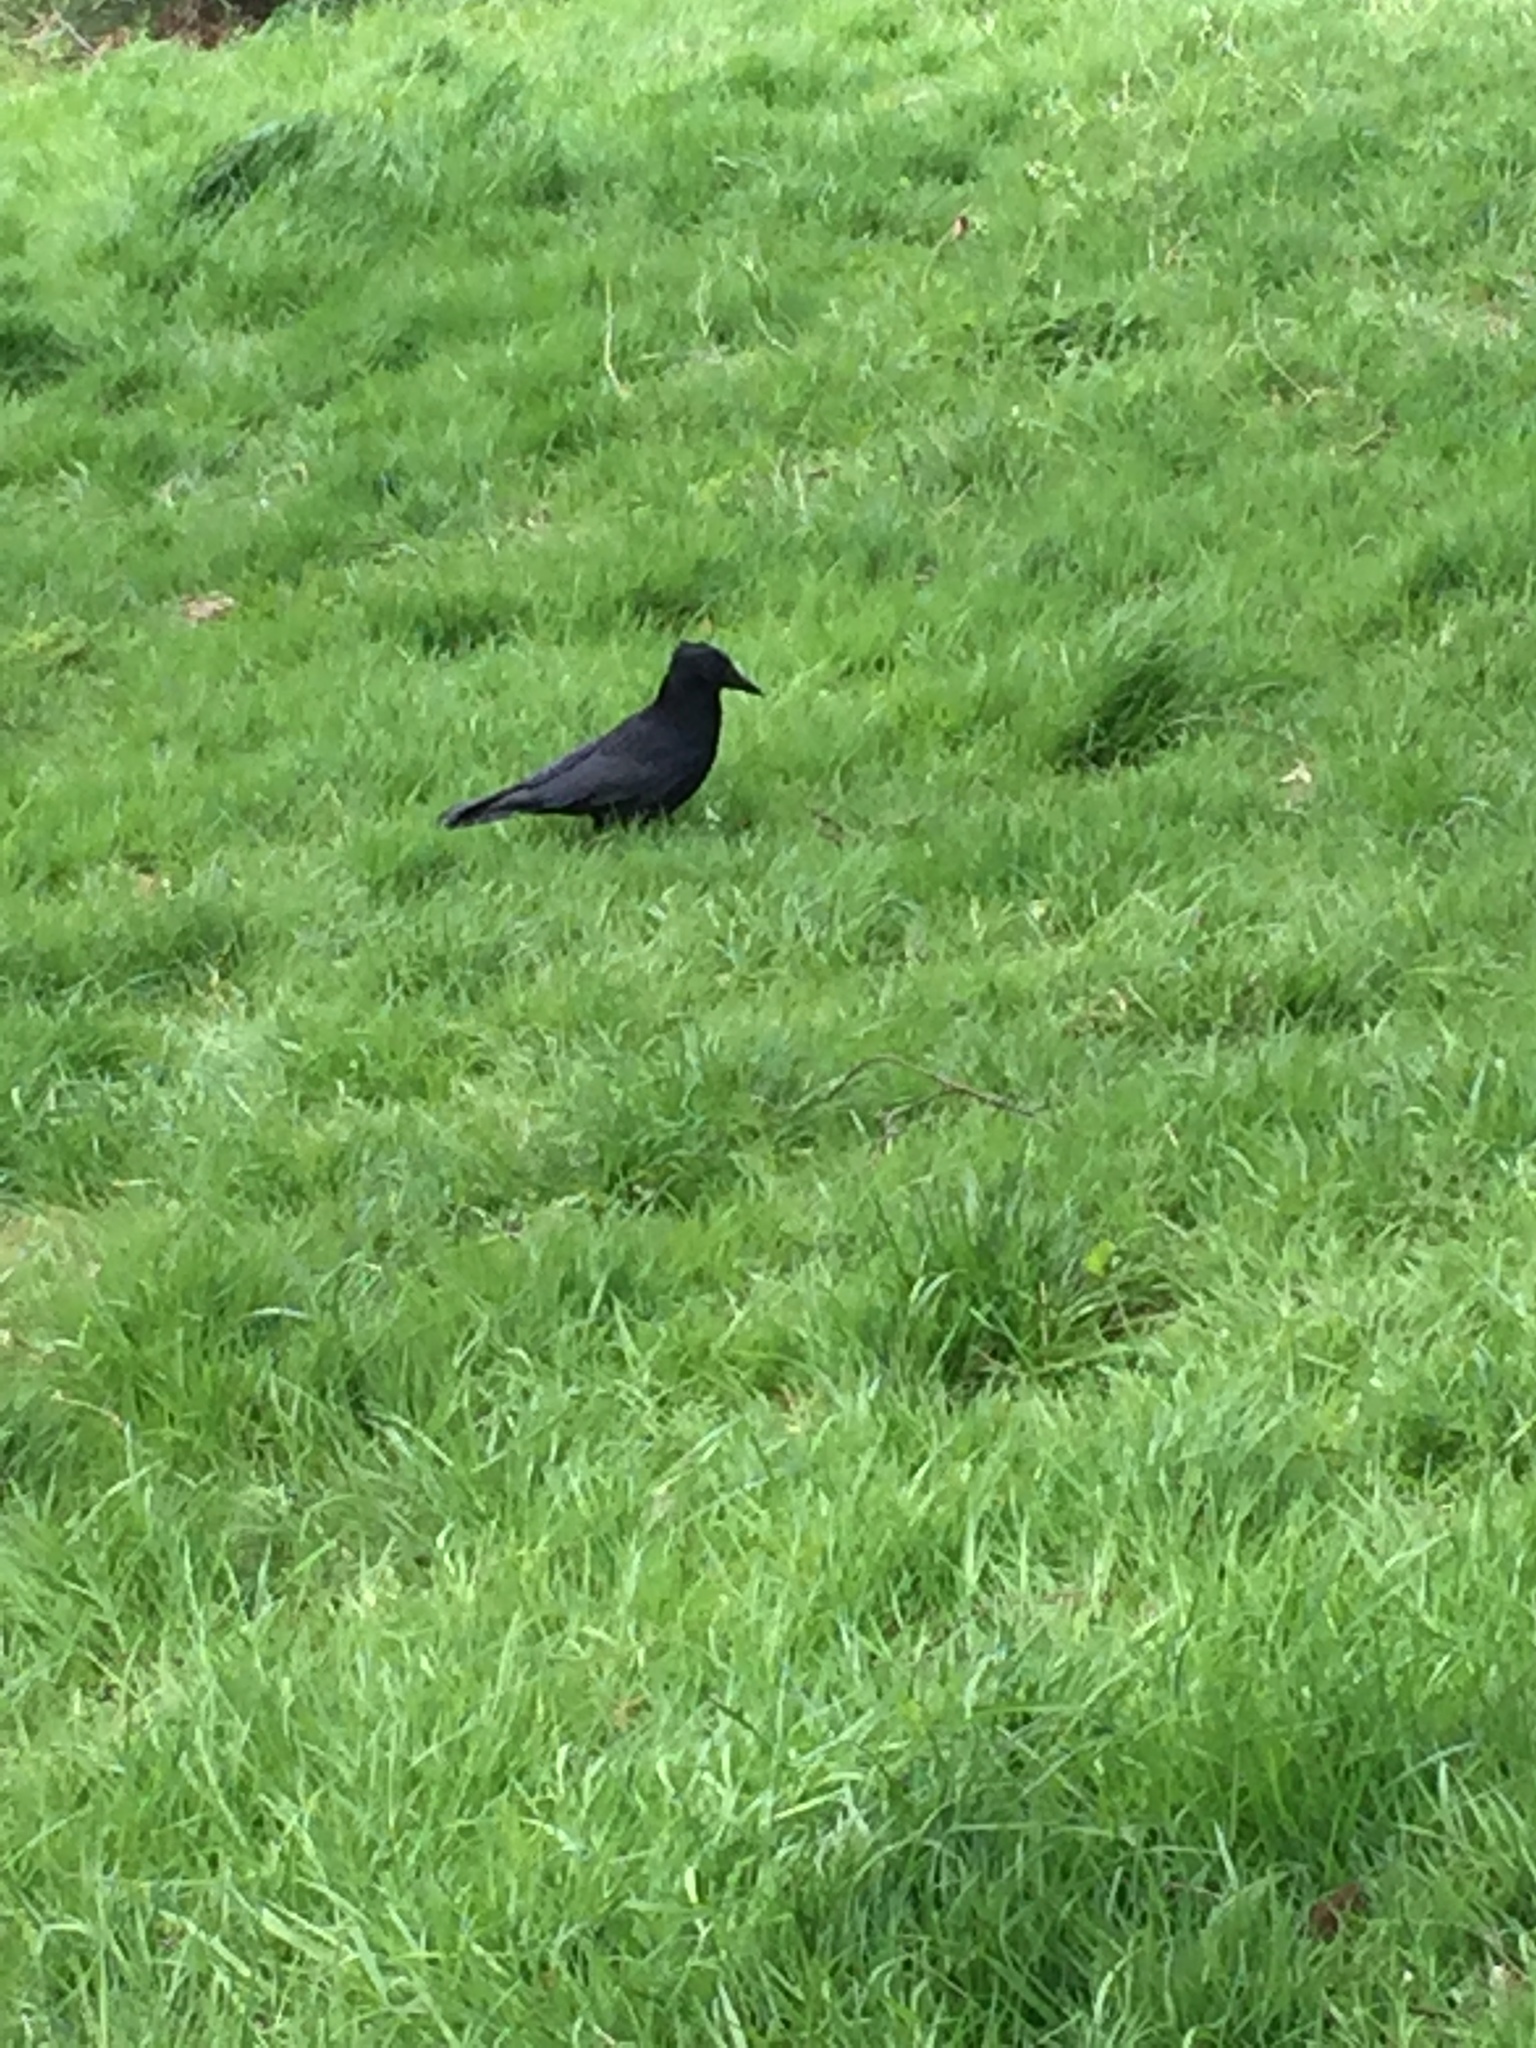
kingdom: Animalia
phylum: Chordata
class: Aves
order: Passeriformes
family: Corvidae
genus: Corvus
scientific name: Corvus corone
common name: Carrion crow
